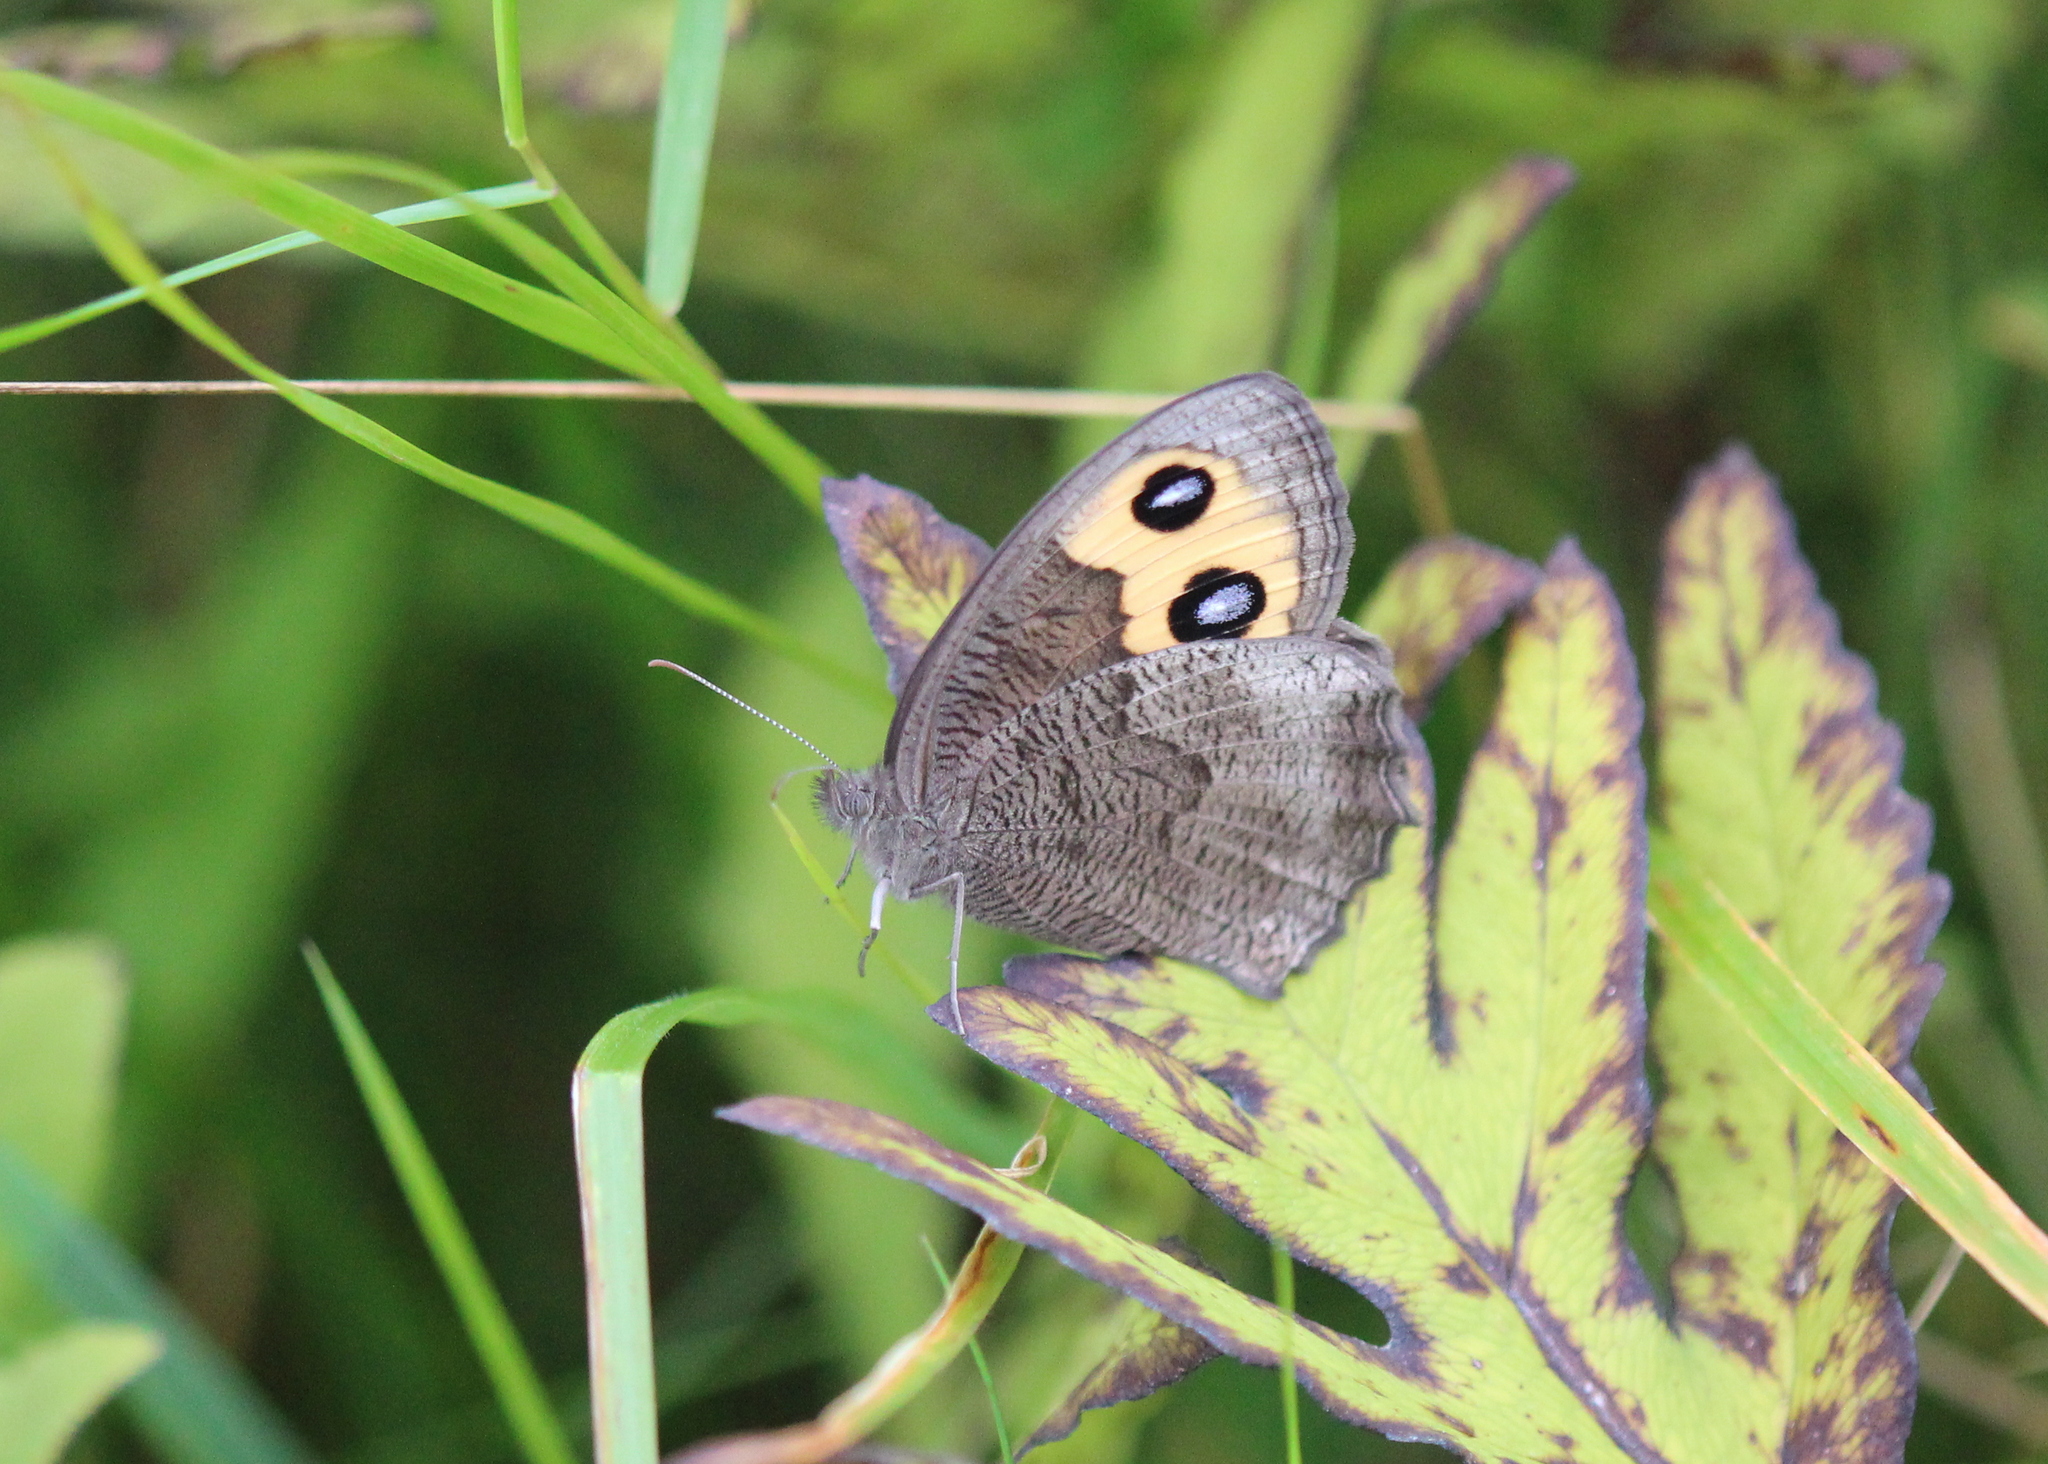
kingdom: Animalia
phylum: Arthropoda
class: Insecta
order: Lepidoptera
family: Nymphalidae
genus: Cercyonis
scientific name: Cercyonis pegala
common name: Common wood-nymph
